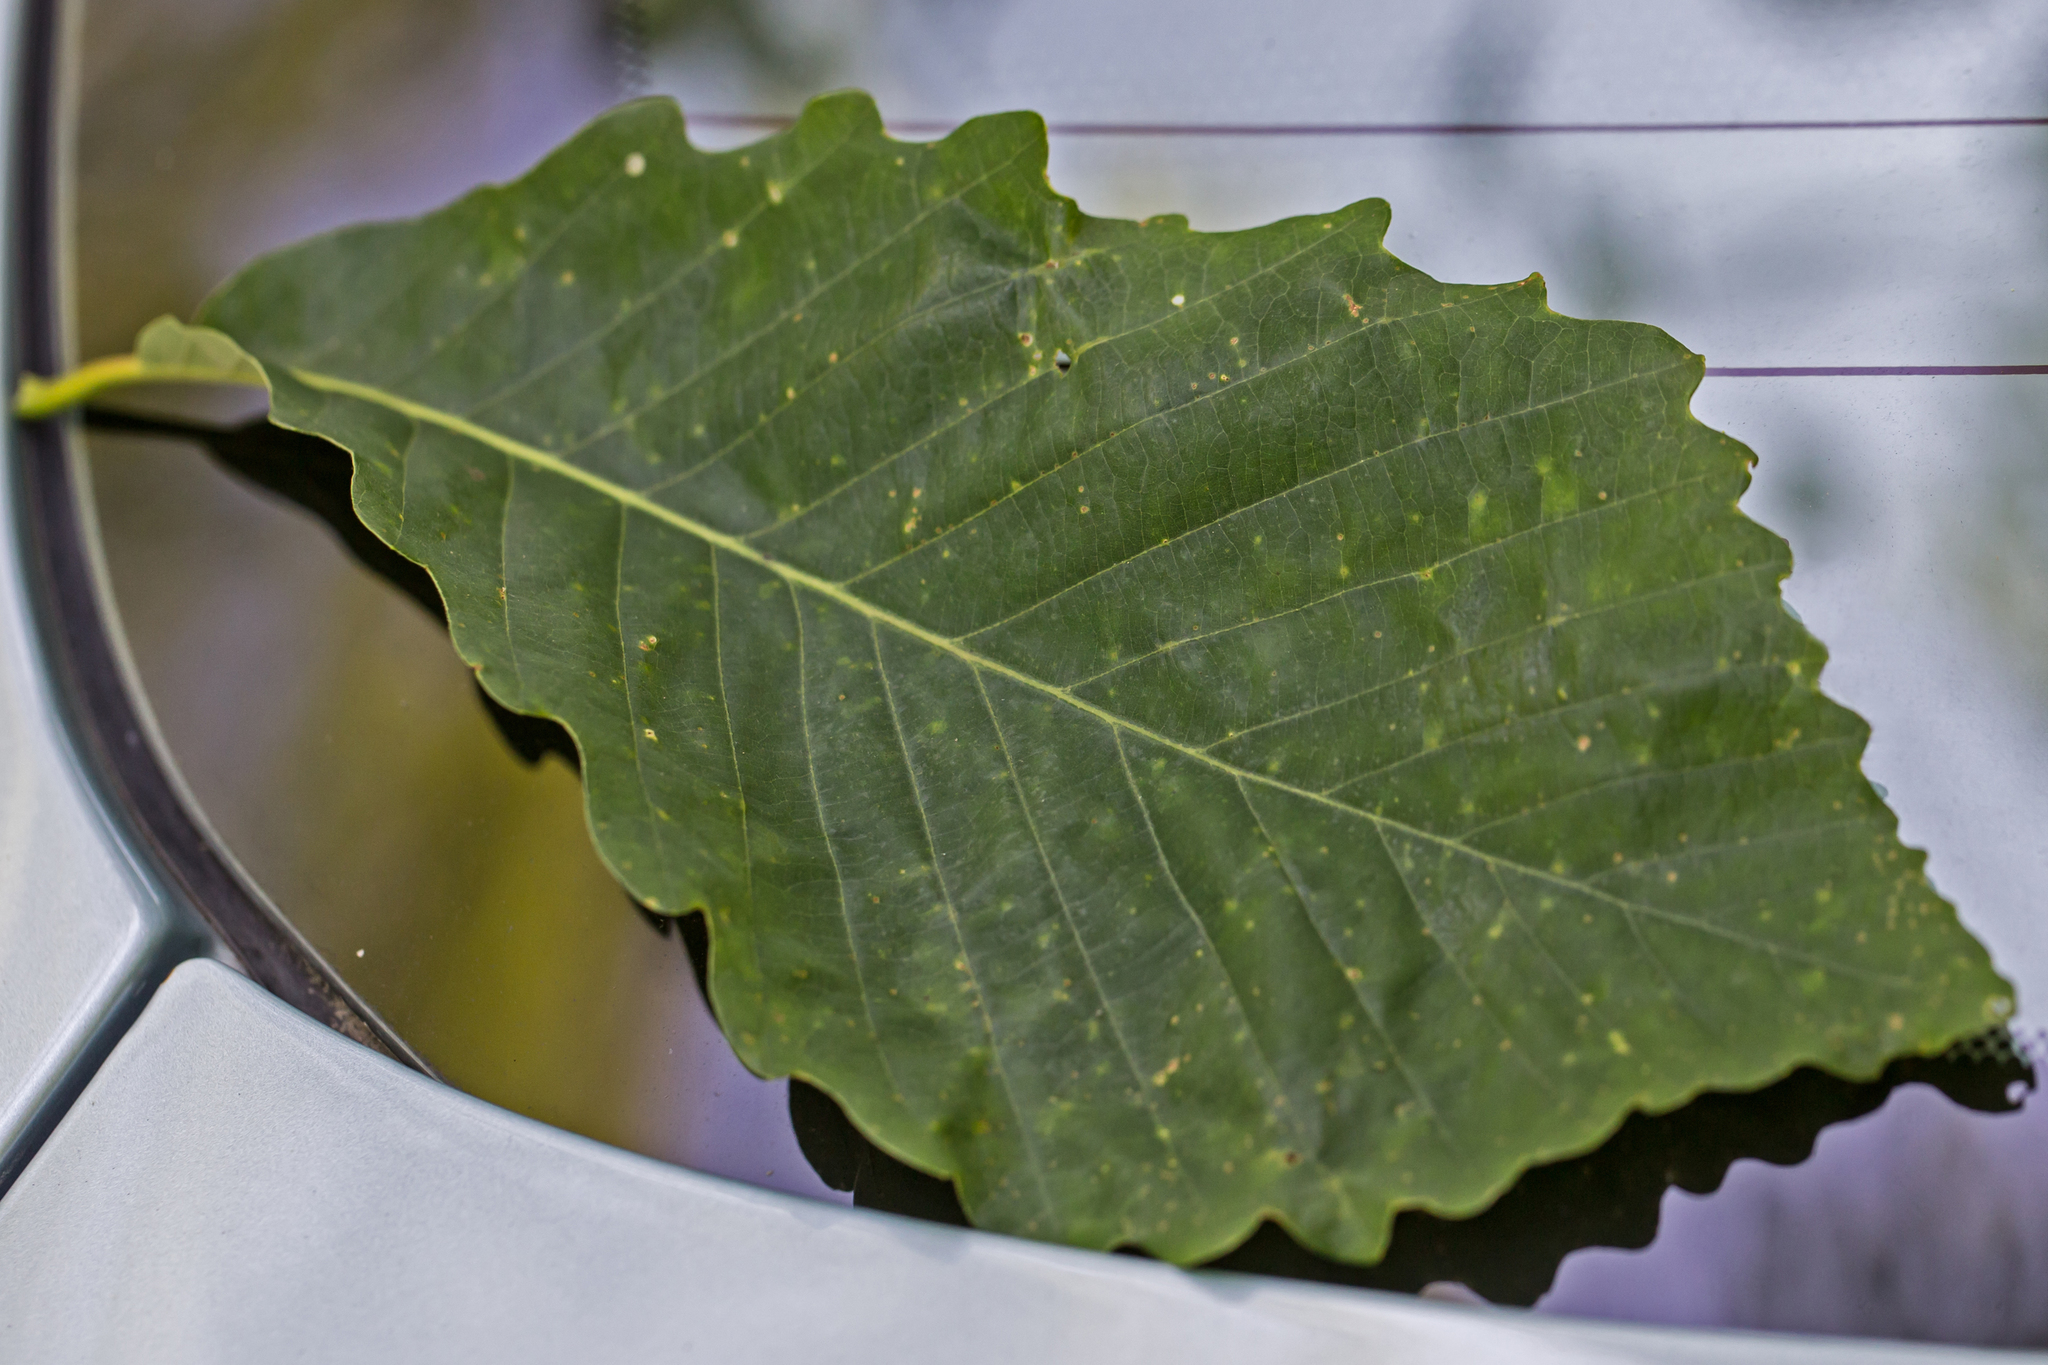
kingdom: Plantae
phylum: Tracheophyta
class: Magnoliopsida
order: Fagales
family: Fagaceae
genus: Quercus
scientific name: Quercus montana
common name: Chestnut oak
